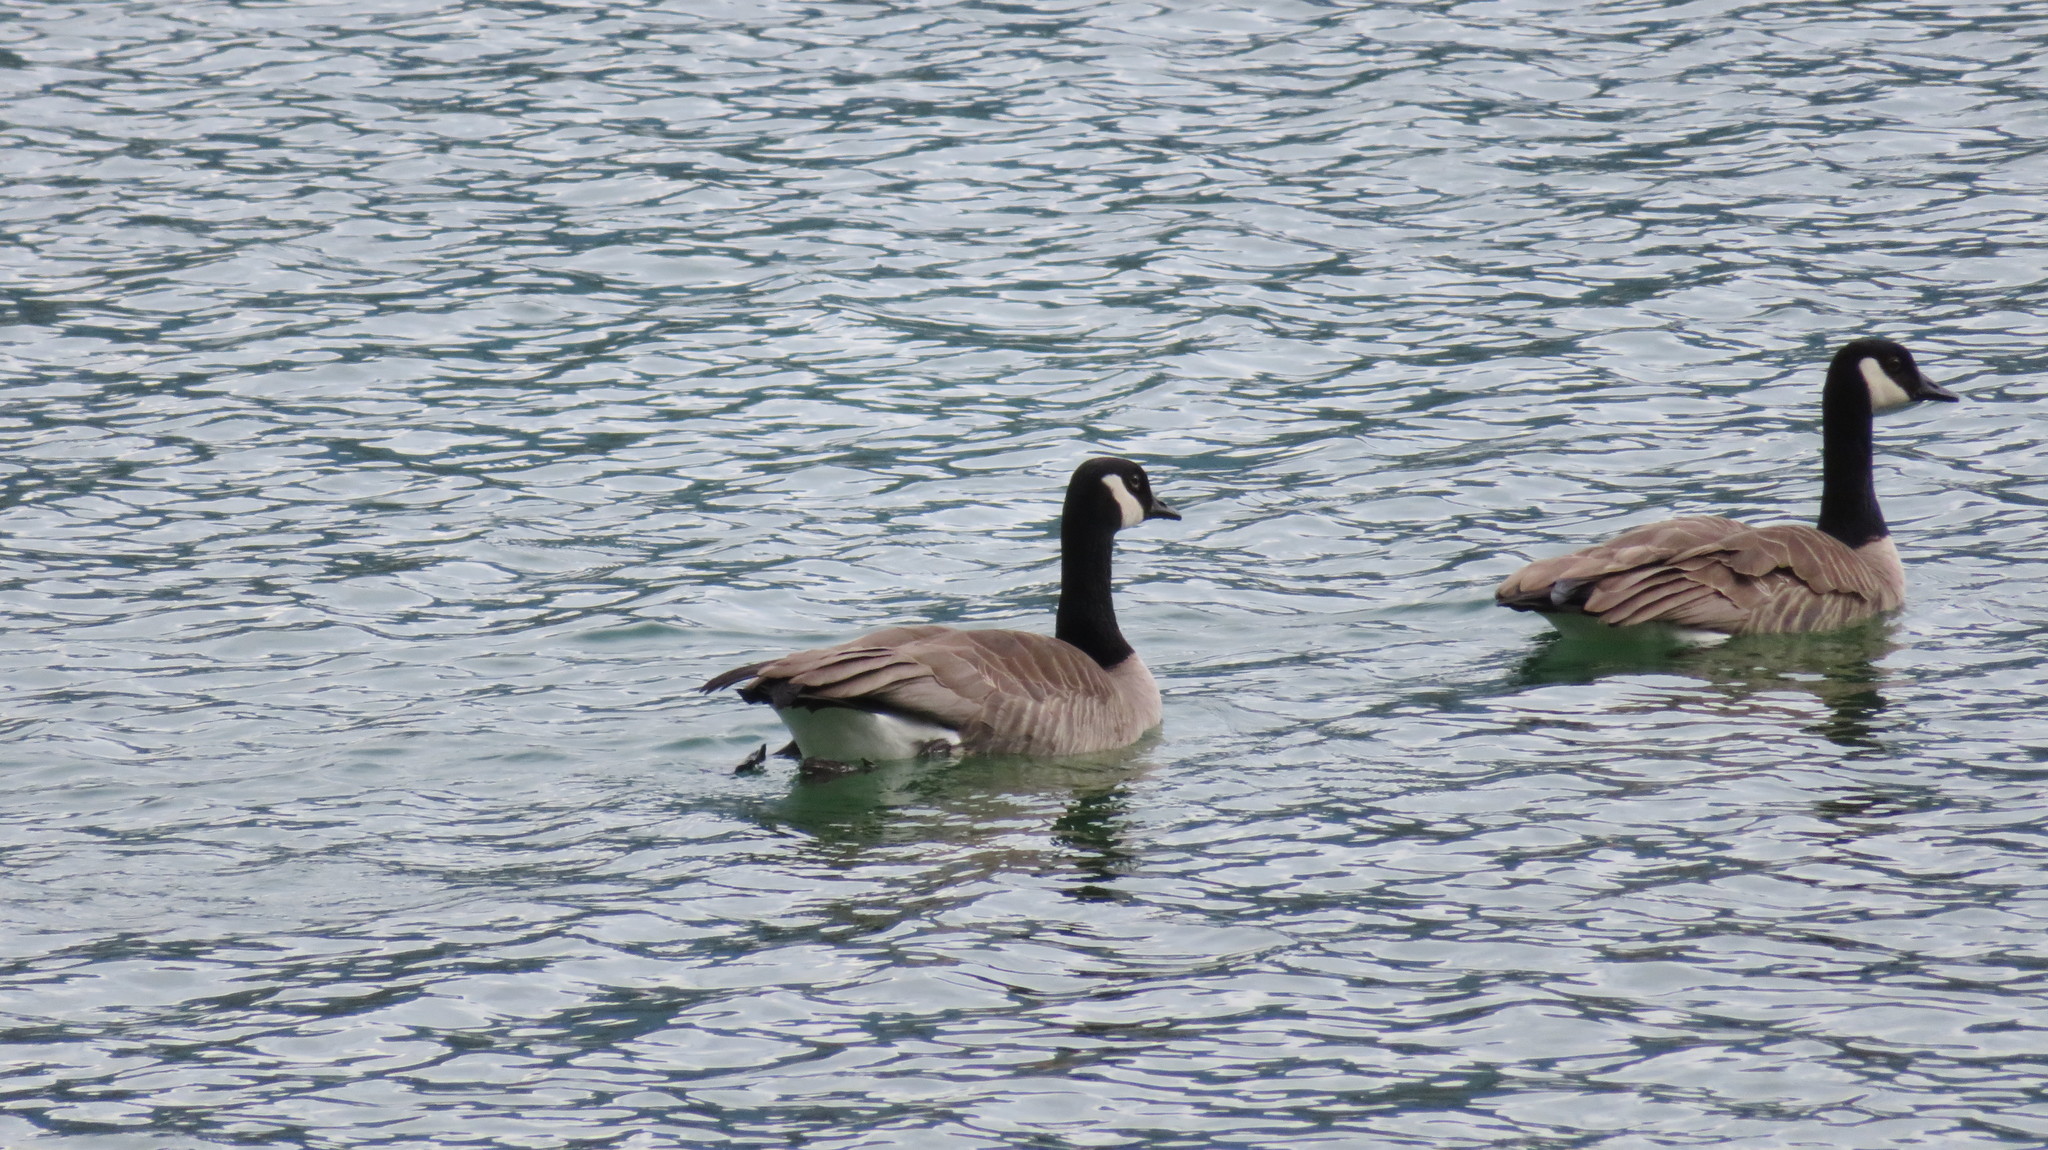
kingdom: Animalia
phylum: Chordata
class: Aves
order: Anseriformes
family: Anatidae
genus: Branta
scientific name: Branta canadensis
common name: Canada goose
